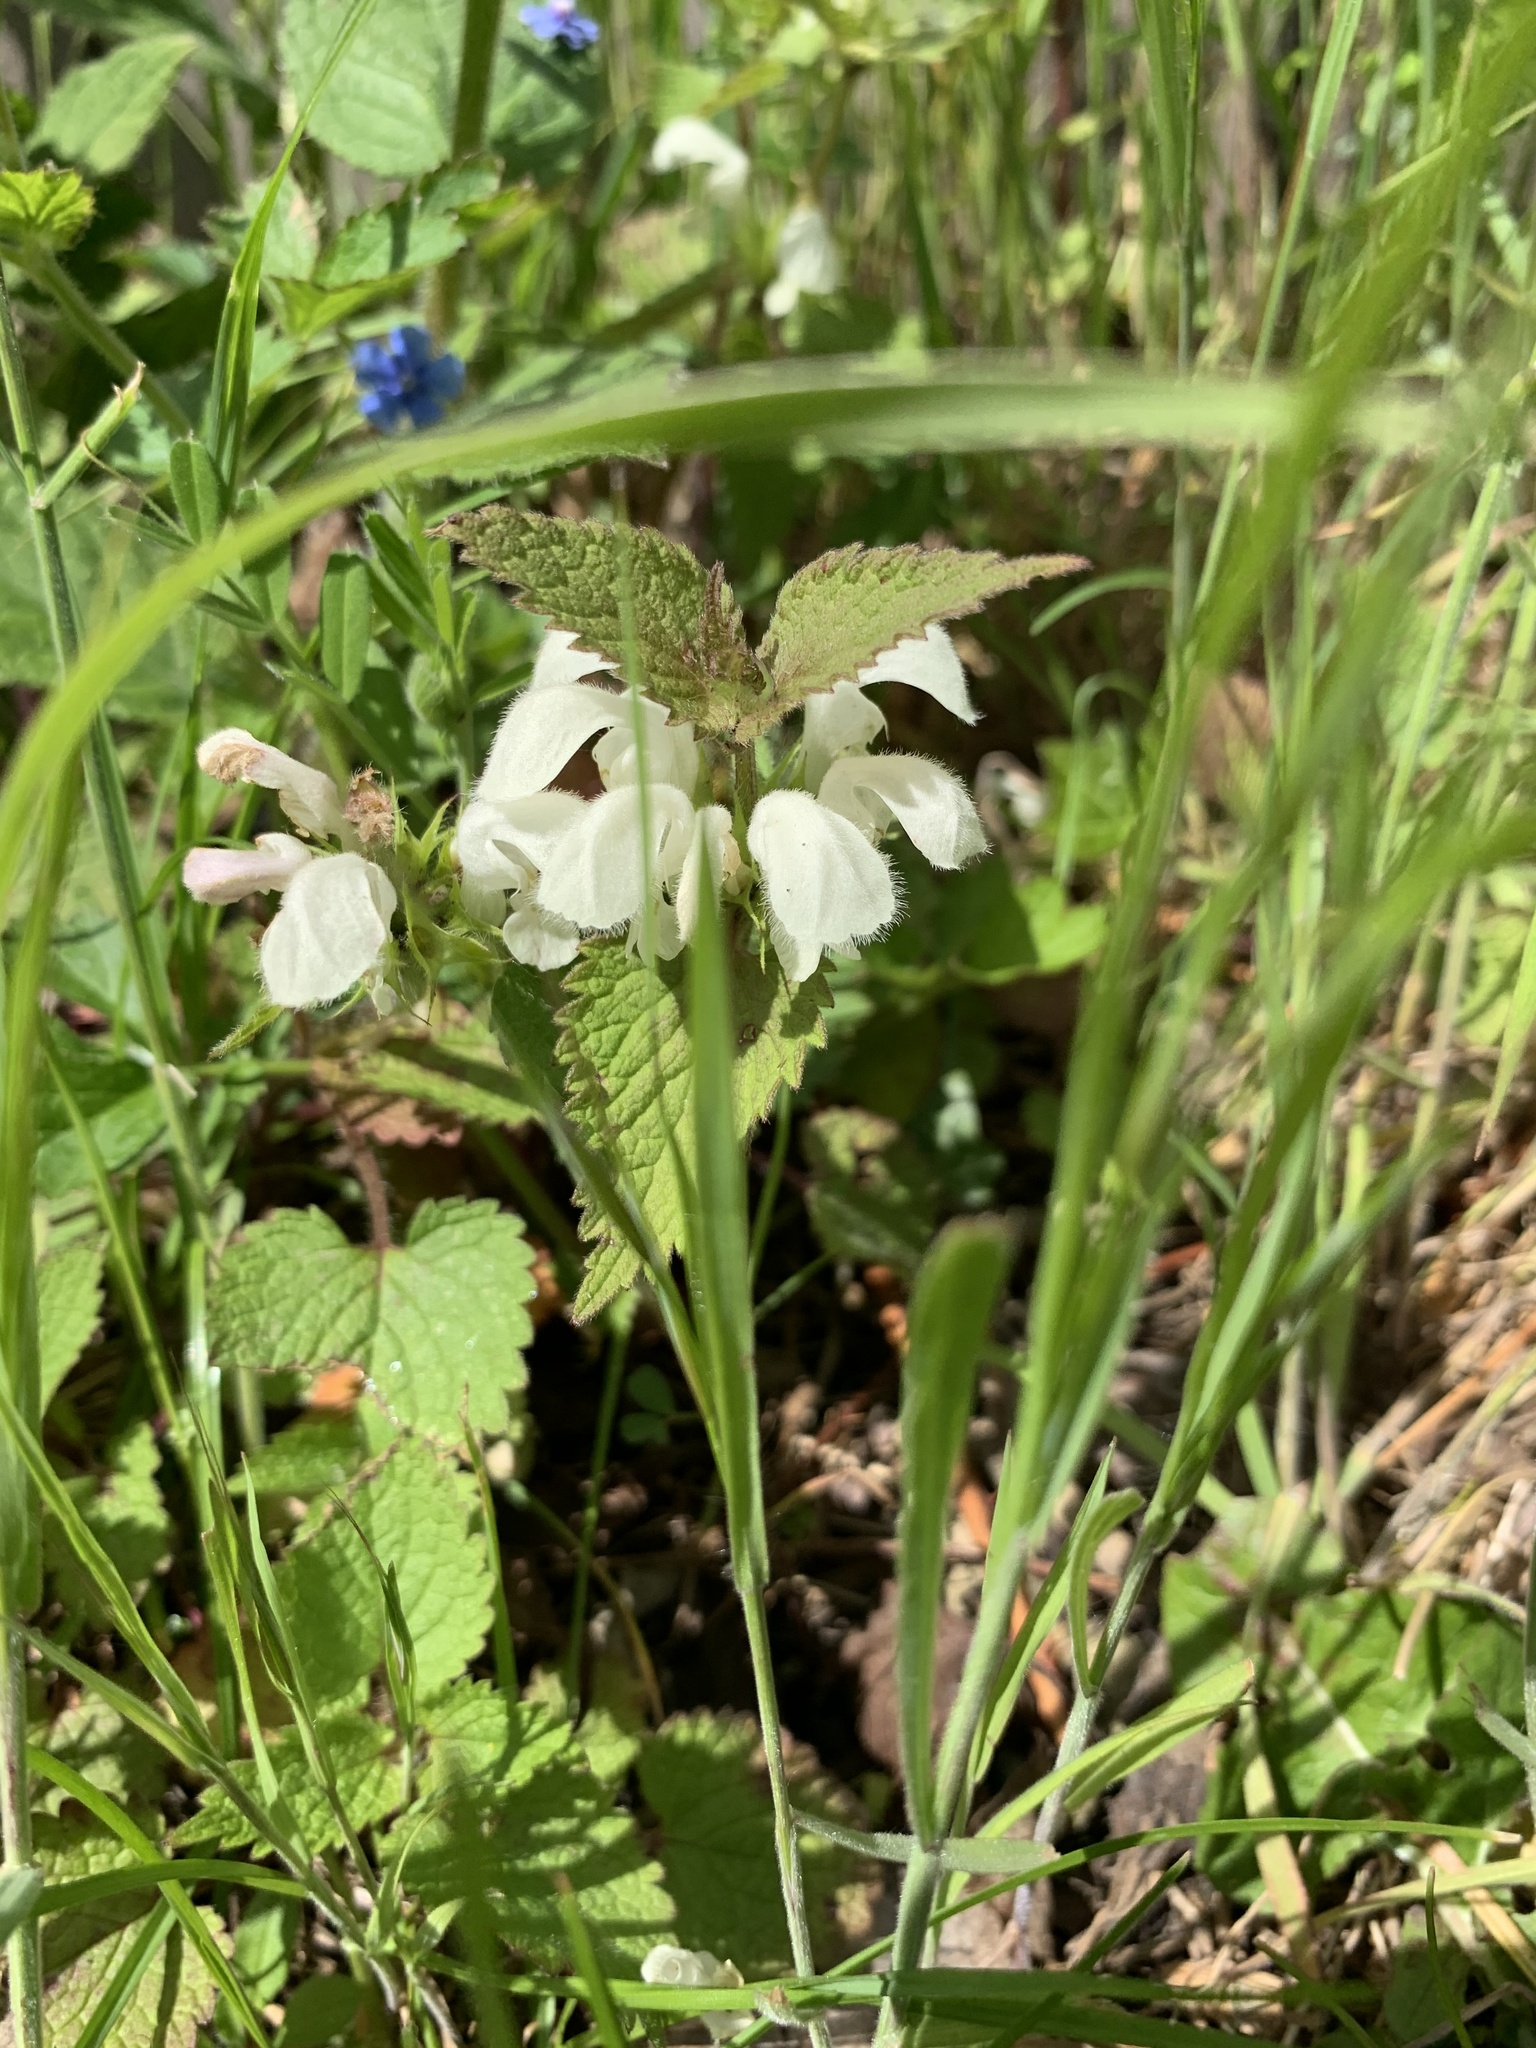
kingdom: Plantae
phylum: Tracheophyta
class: Magnoliopsida
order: Lamiales
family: Lamiaceae
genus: Lamium
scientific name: Lamium album
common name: White dead-nettle
